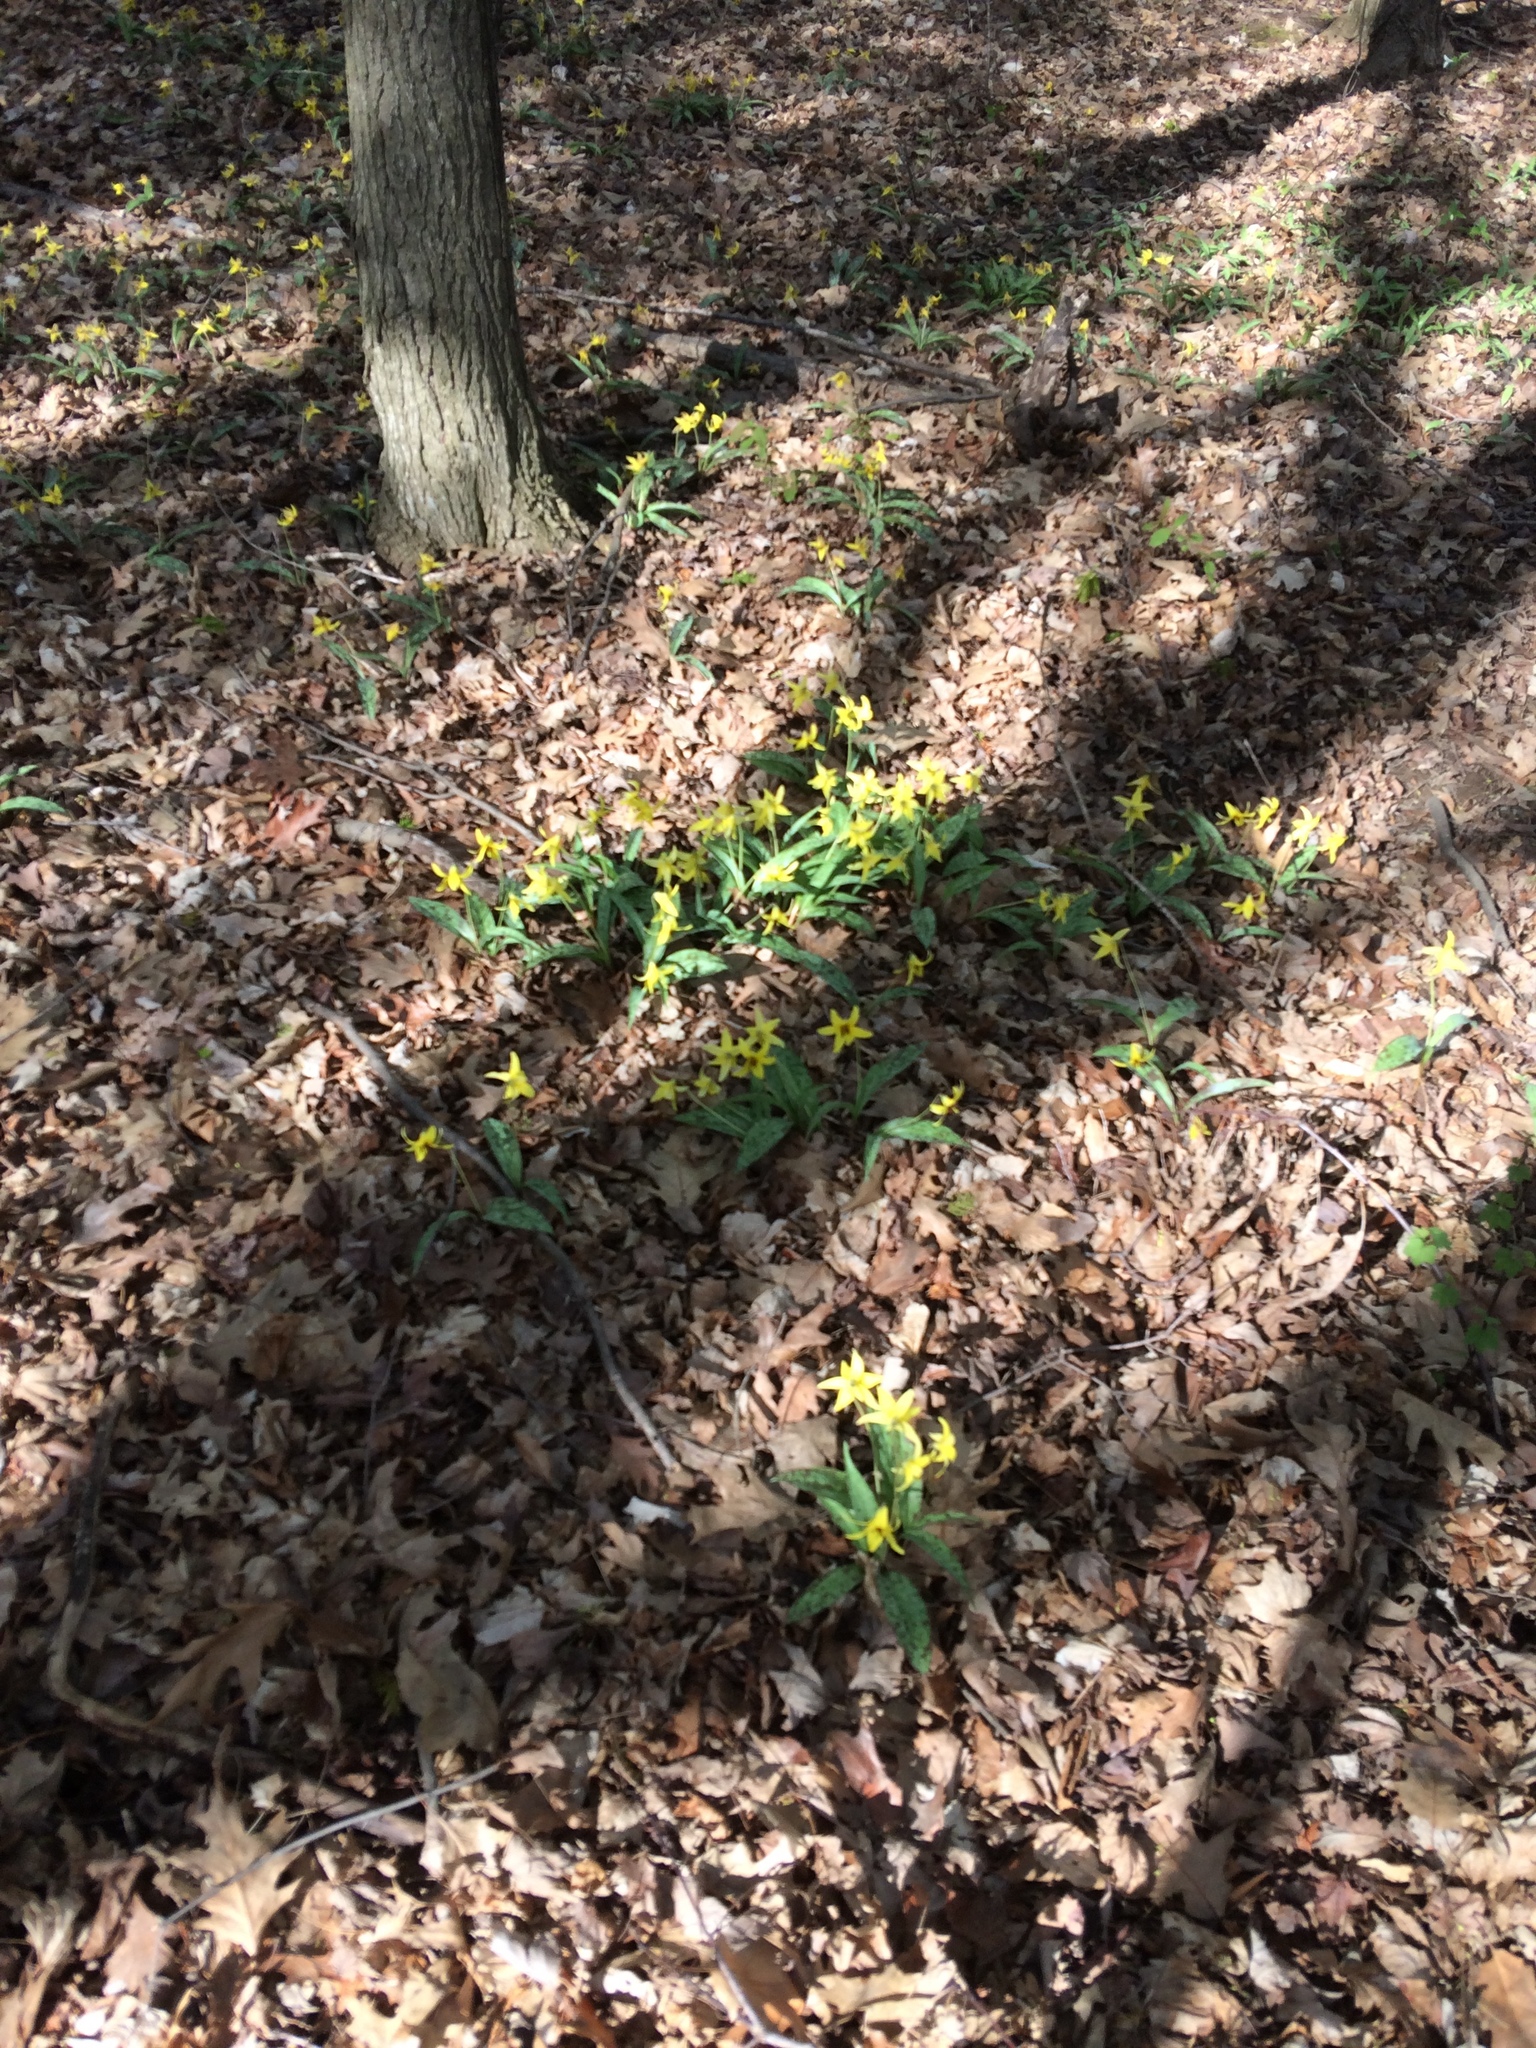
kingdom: Plantae
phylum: Tracheophyta
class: Liliopsida
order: Liliales
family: Liliaceae
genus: Erythronium
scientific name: Erythronium americanum
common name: Yellow adder's-tongue
